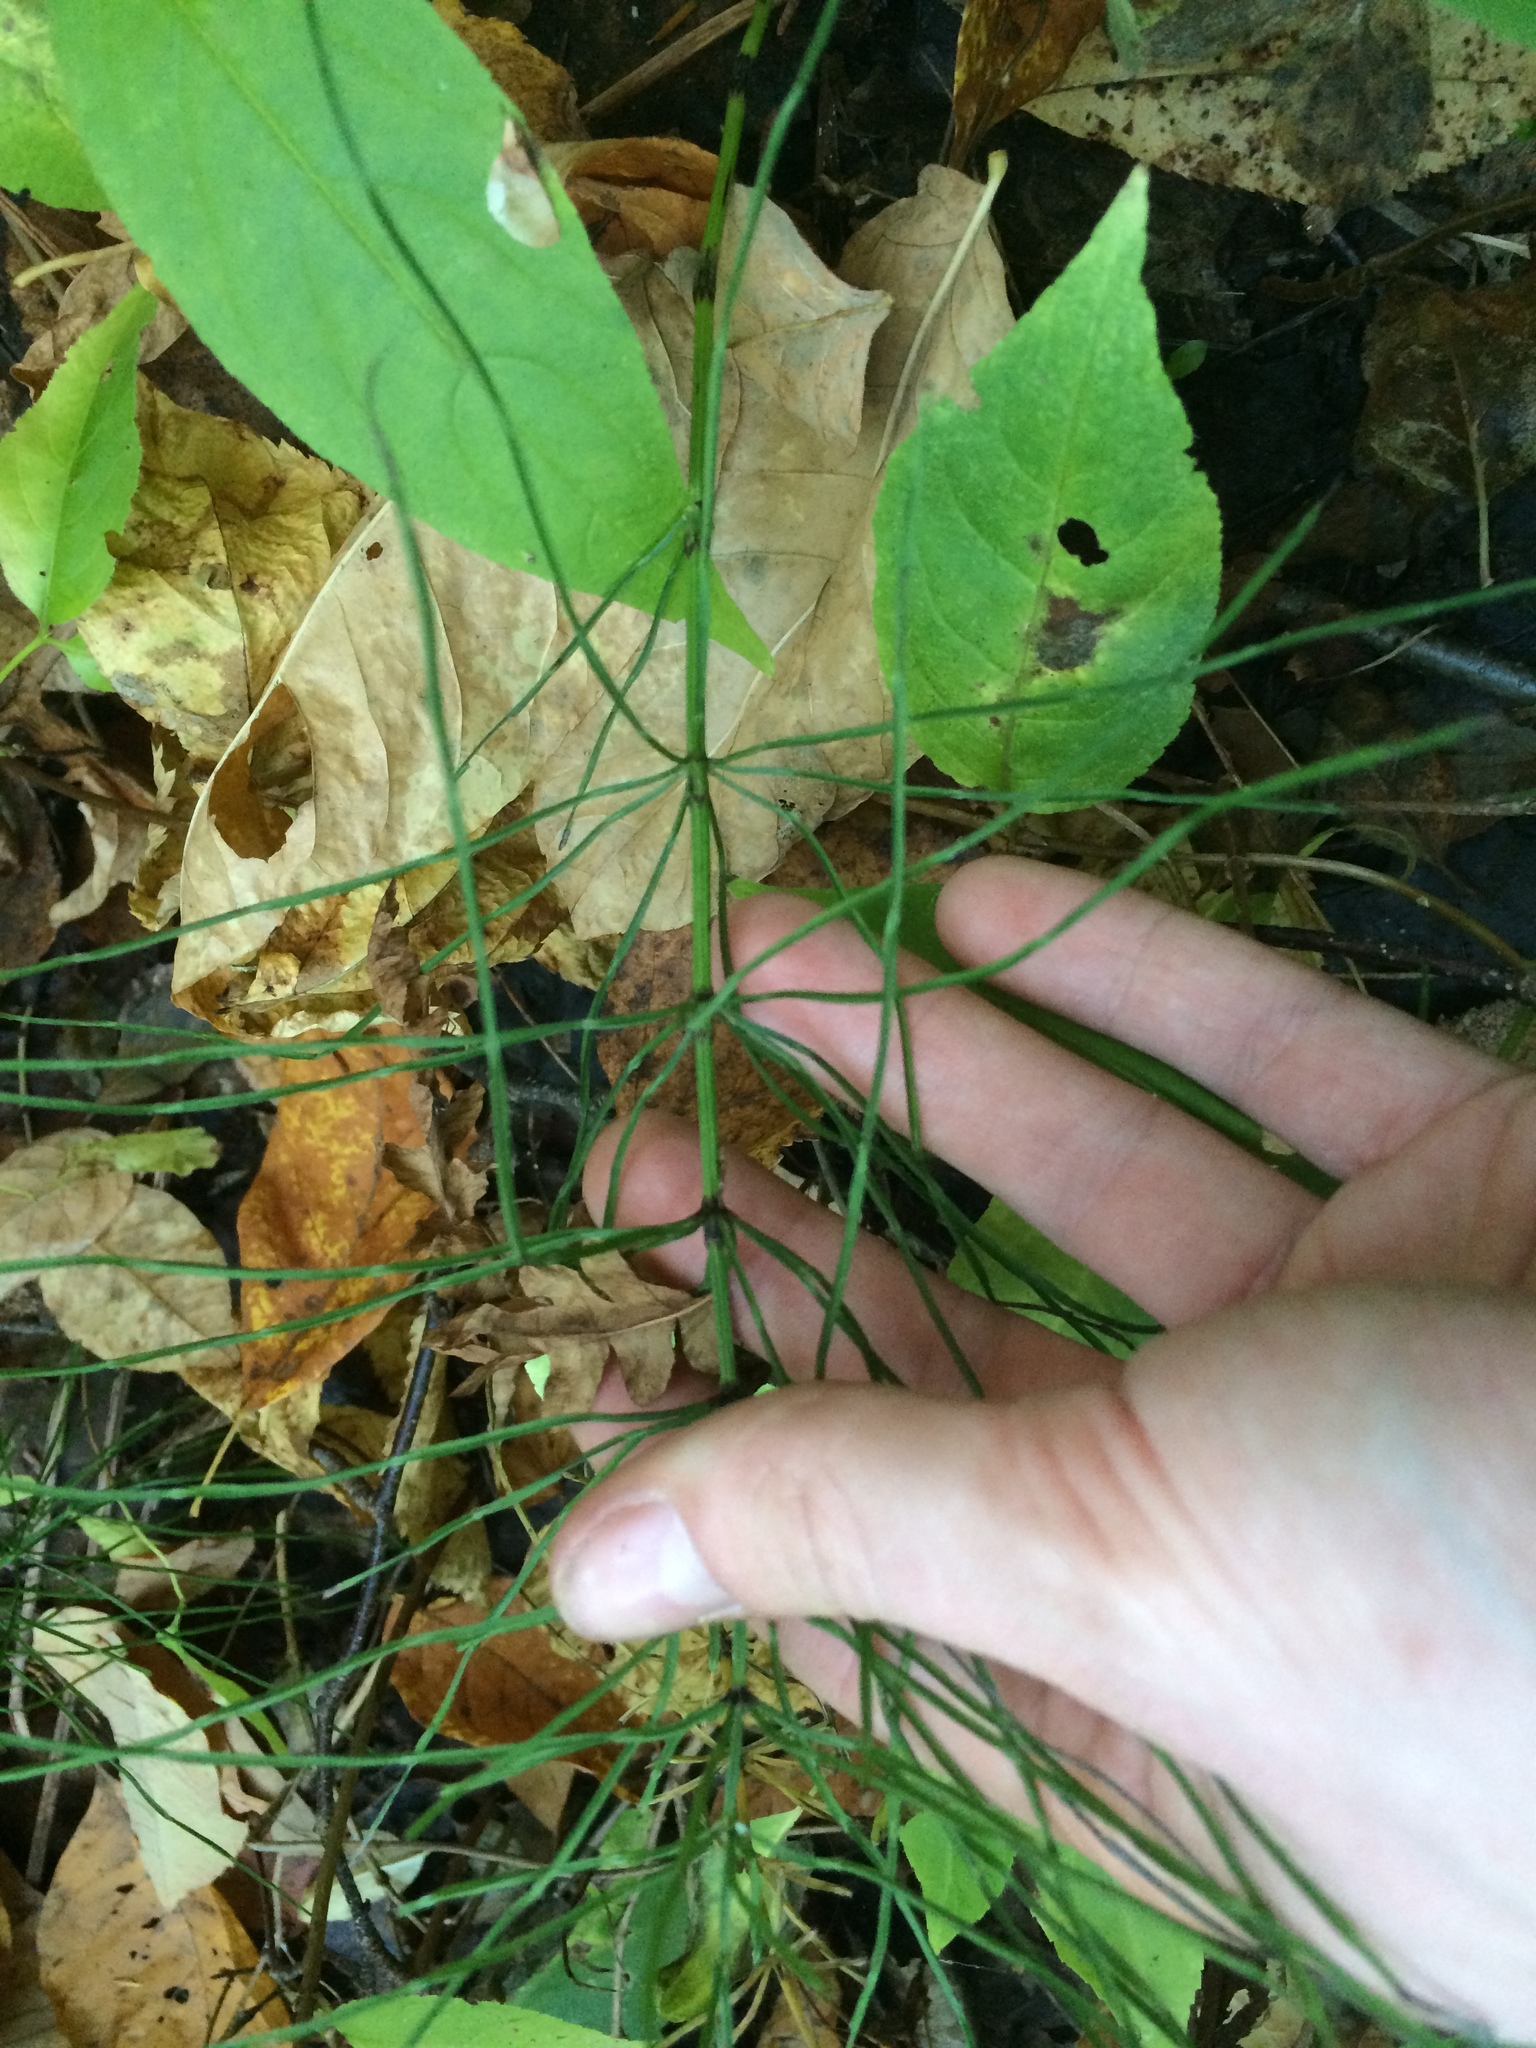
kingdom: Plantae
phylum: Tracheophyta
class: Polypodiopsida
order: Equisetales
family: Equisetaceae
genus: Equisetum
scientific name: Equisetum arvense
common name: Field horsetail
